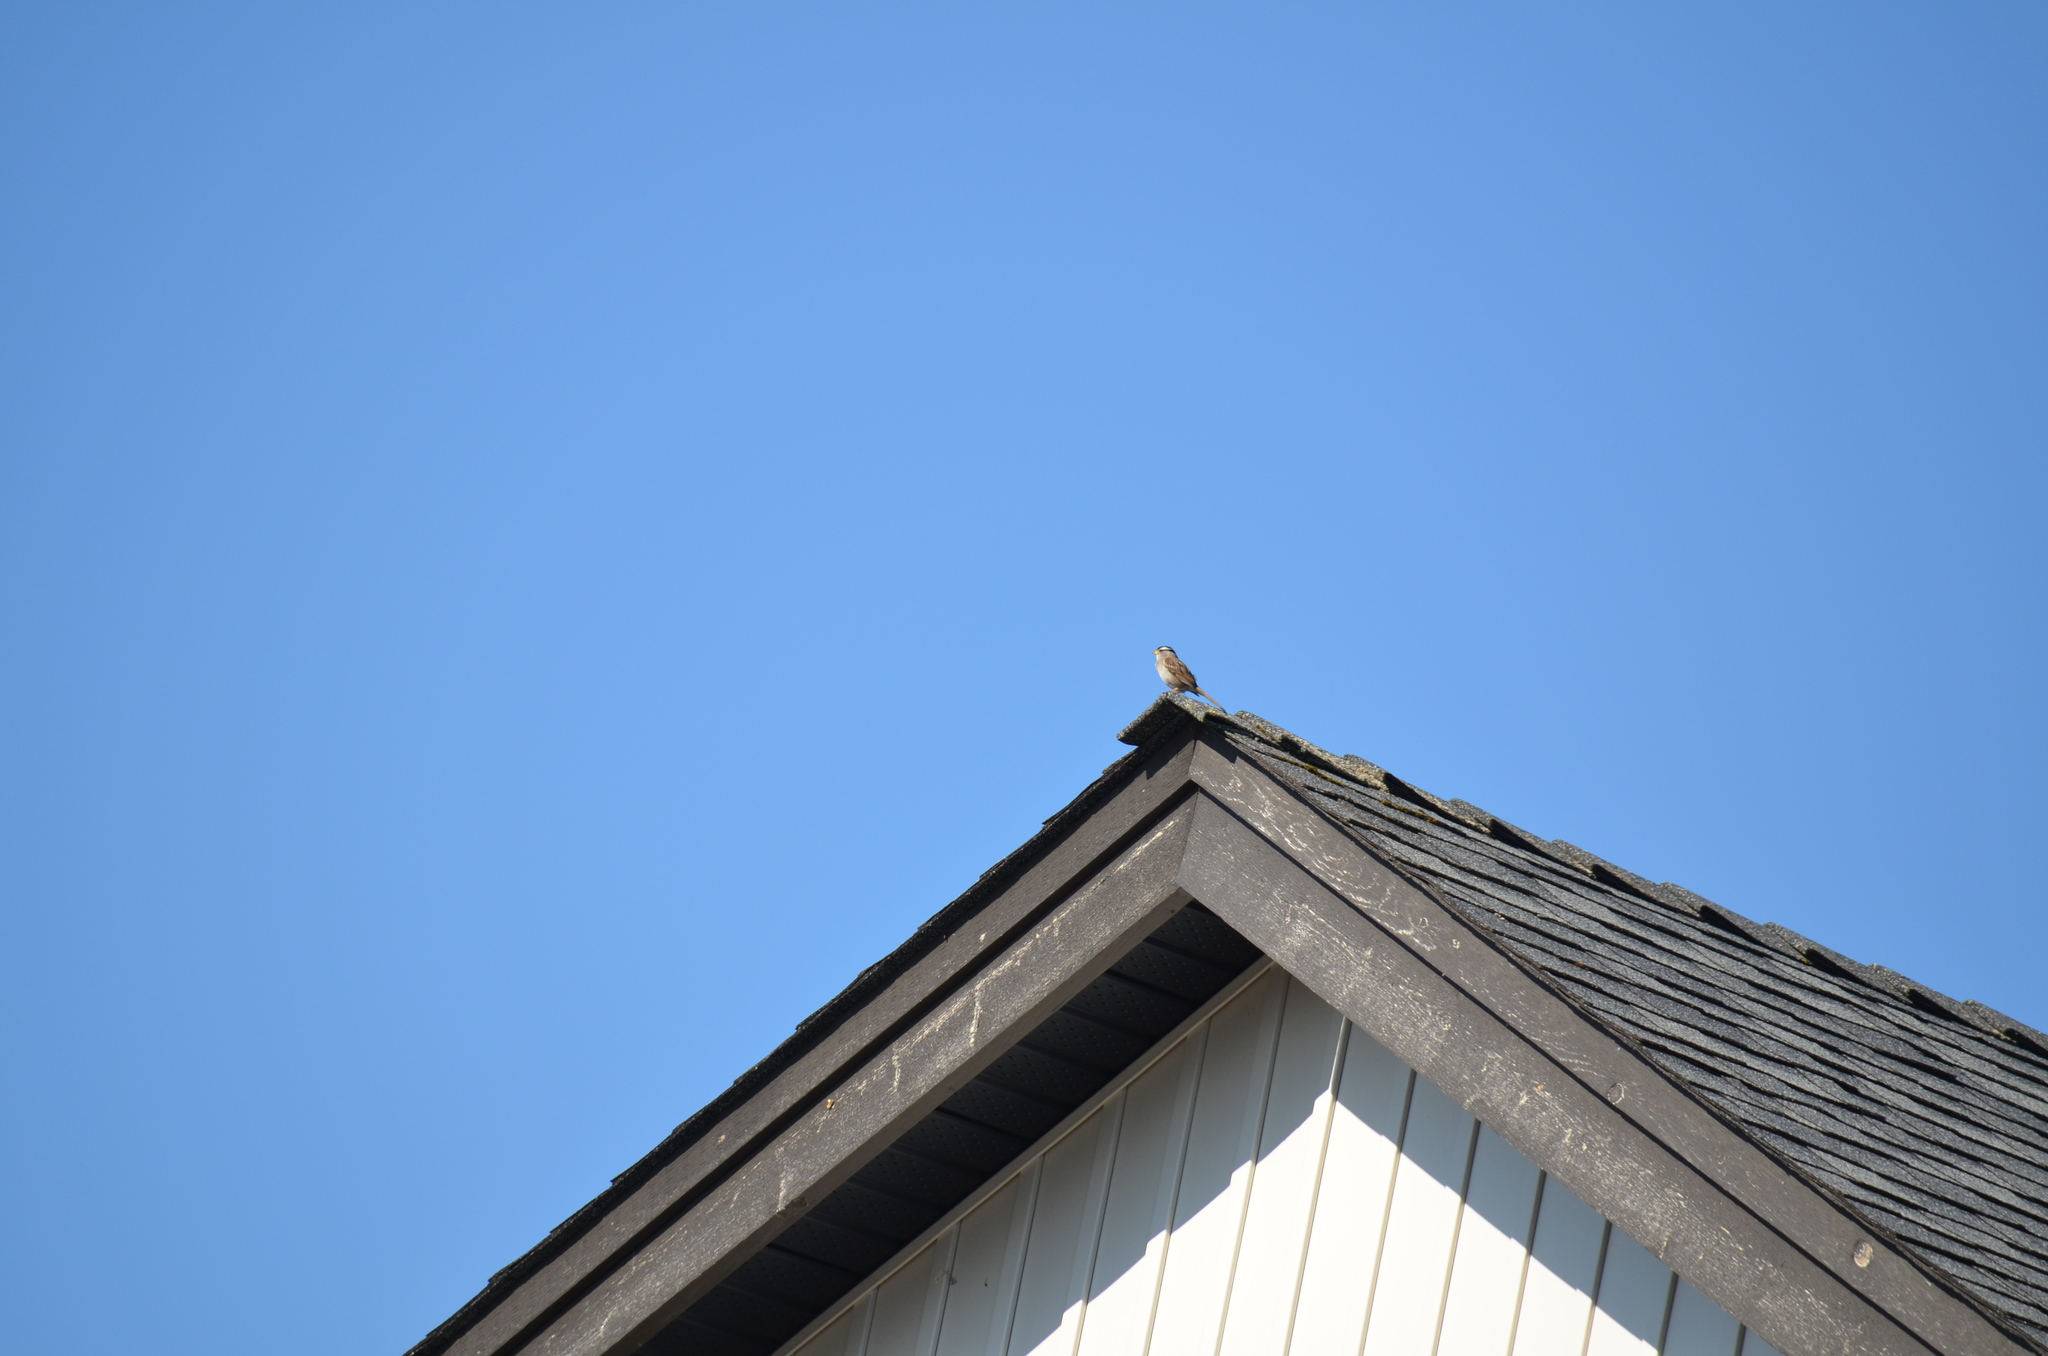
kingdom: Animalia
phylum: Chordata
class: Aves
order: Passeriformes
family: Passerellidae
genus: Zonotrichia
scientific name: Zonotrichia leucophrys
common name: White-crowned sparrow
